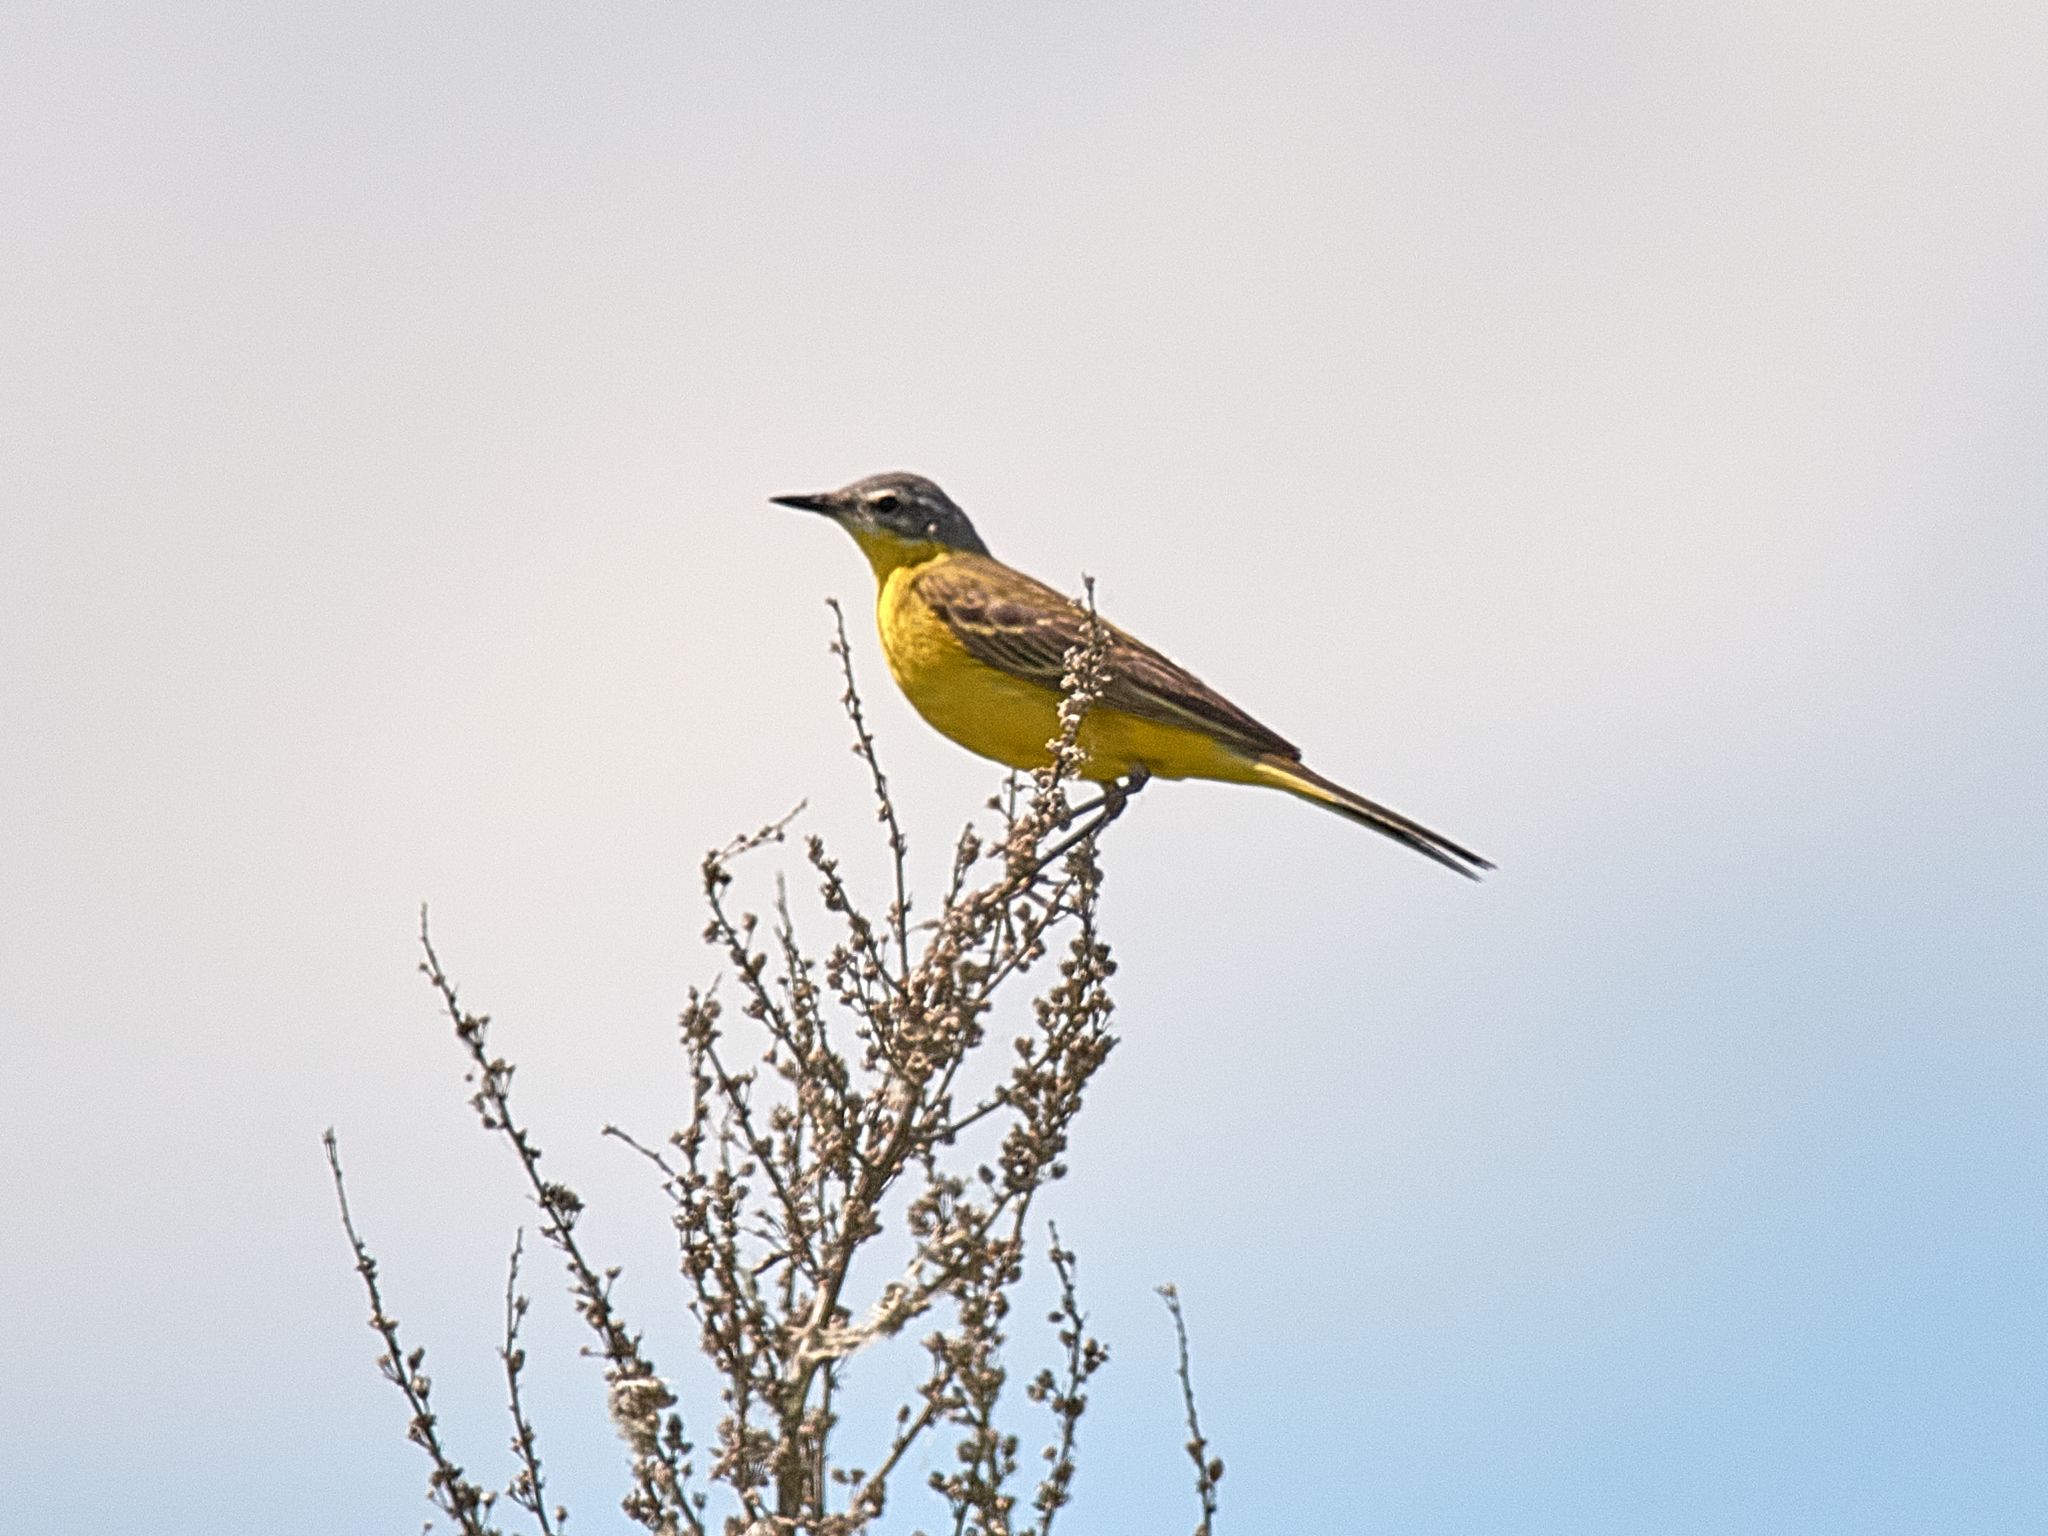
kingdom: Animalia
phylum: Chordata
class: Aves
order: Passeriformes
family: Motacillidae
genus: Motacilla
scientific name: Motacilla flava
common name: Western yellow wagtail
